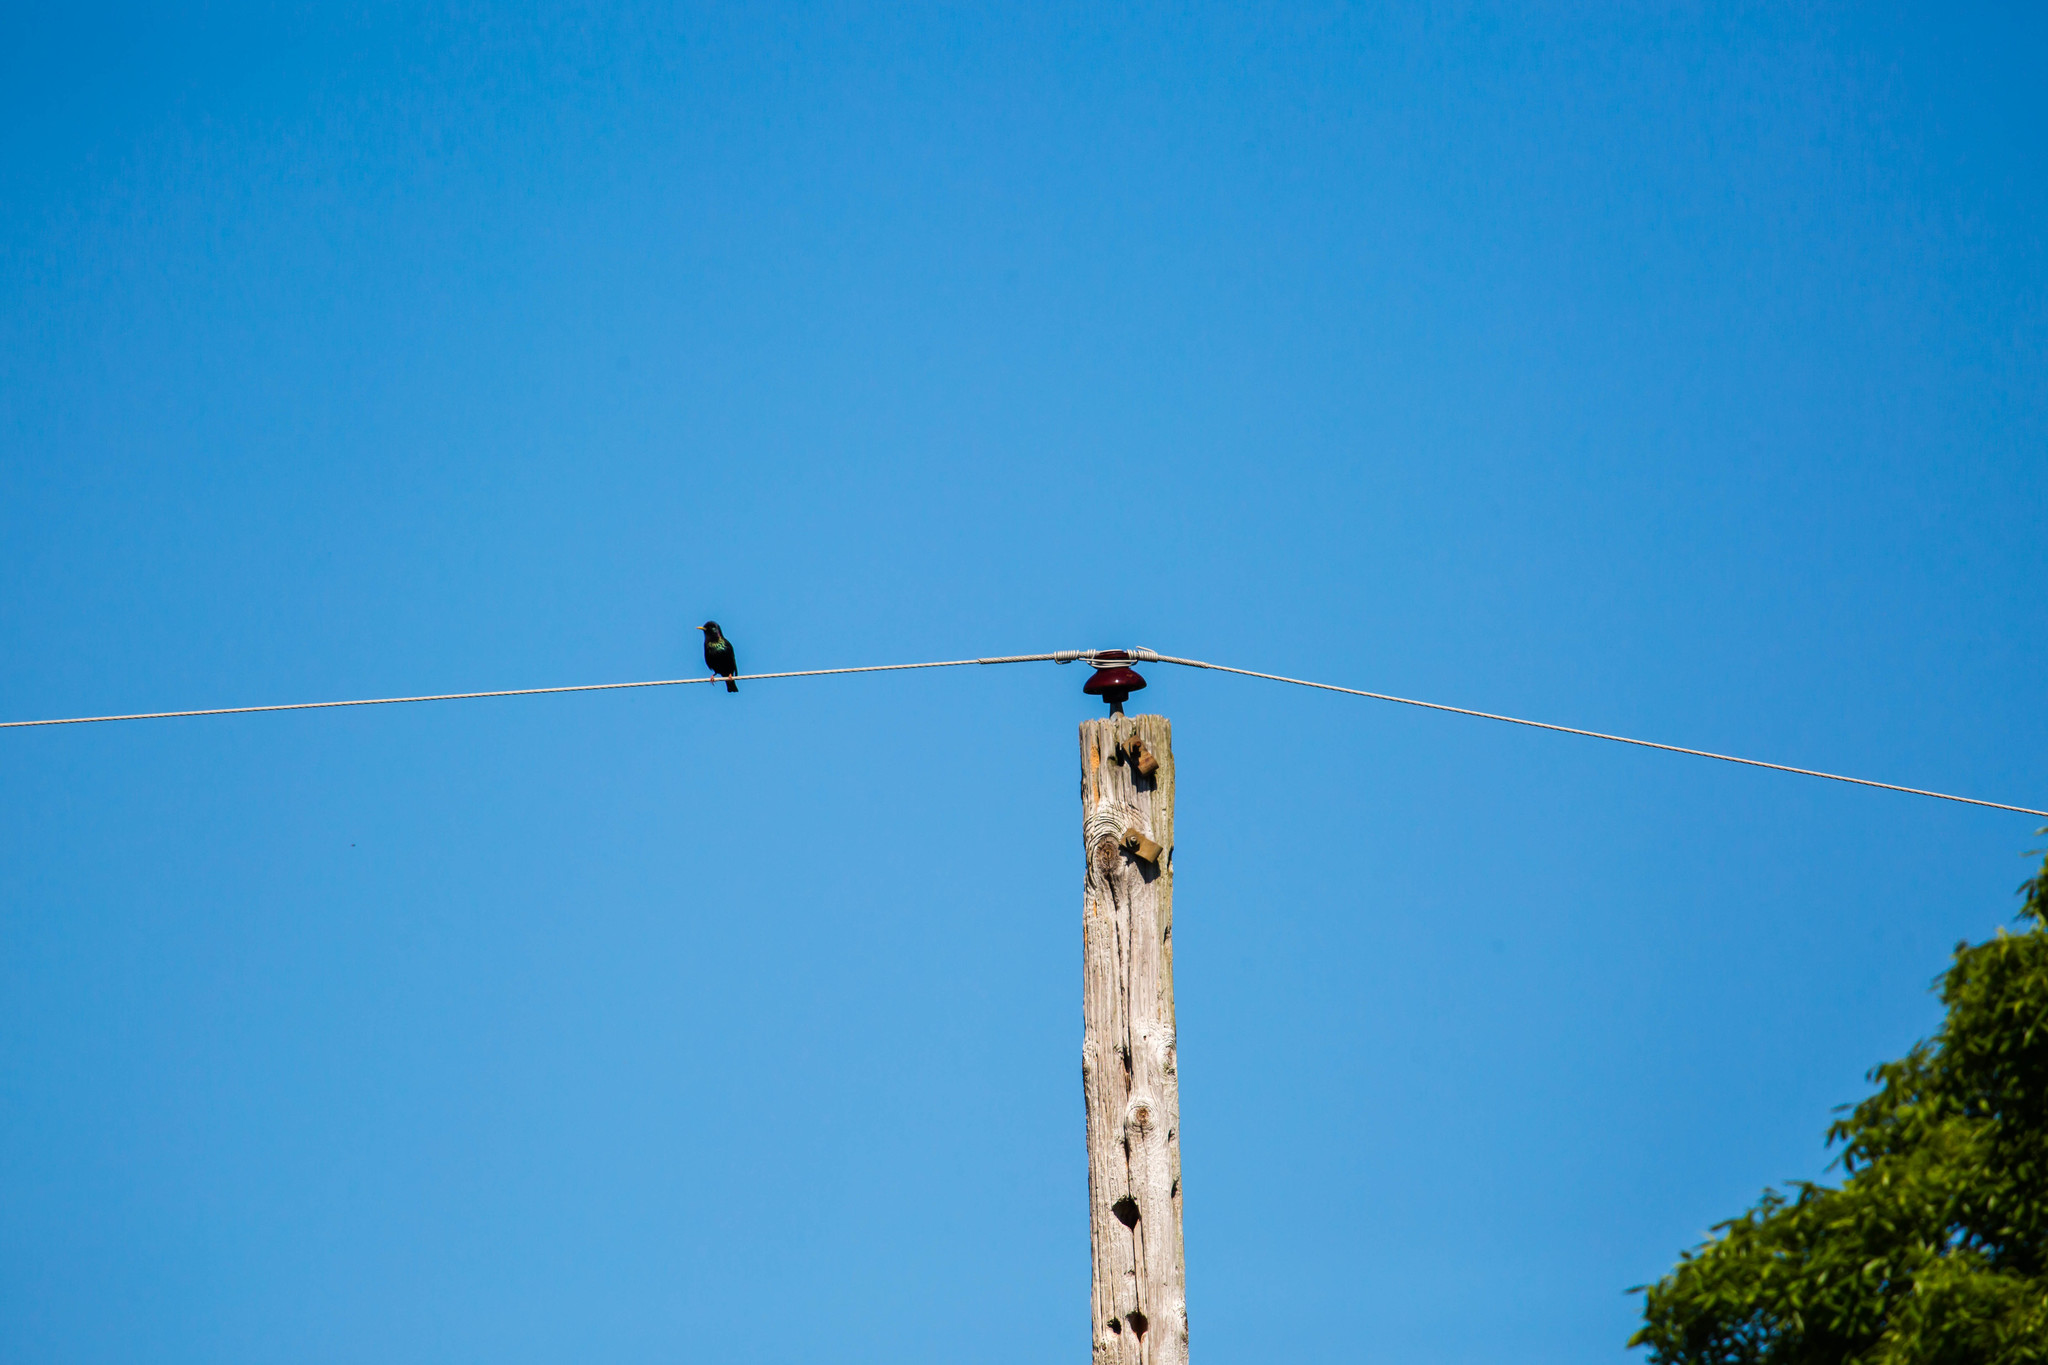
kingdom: Animalia
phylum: Chordata
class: Aves
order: Passeriformes
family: Sturnidae
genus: Sturnus
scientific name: Sturnus vulgaris
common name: Common starling
